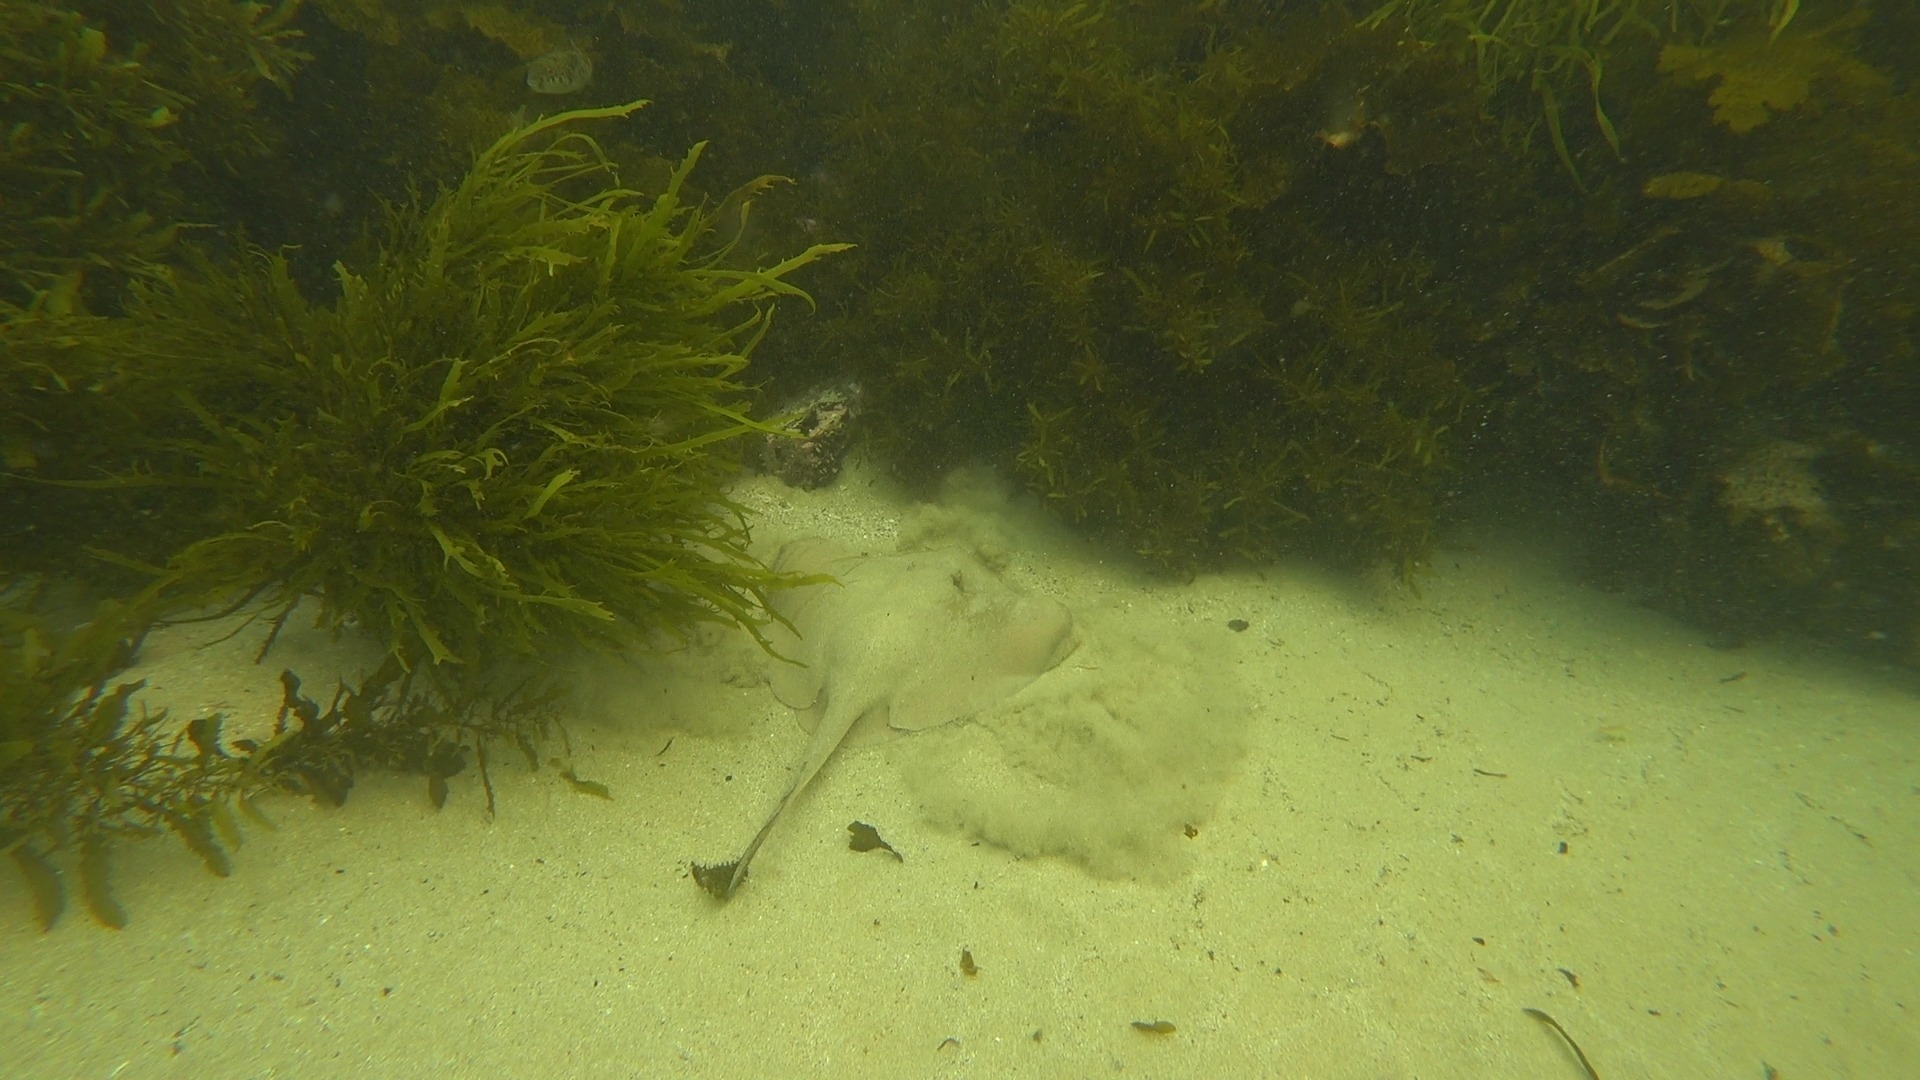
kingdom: Animalia
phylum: Chordata
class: Elasmobranchii
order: Myliobatiformes
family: Urolophidae
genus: Trygonoptera
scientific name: Trygonoptera testacea
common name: Common stingaree
